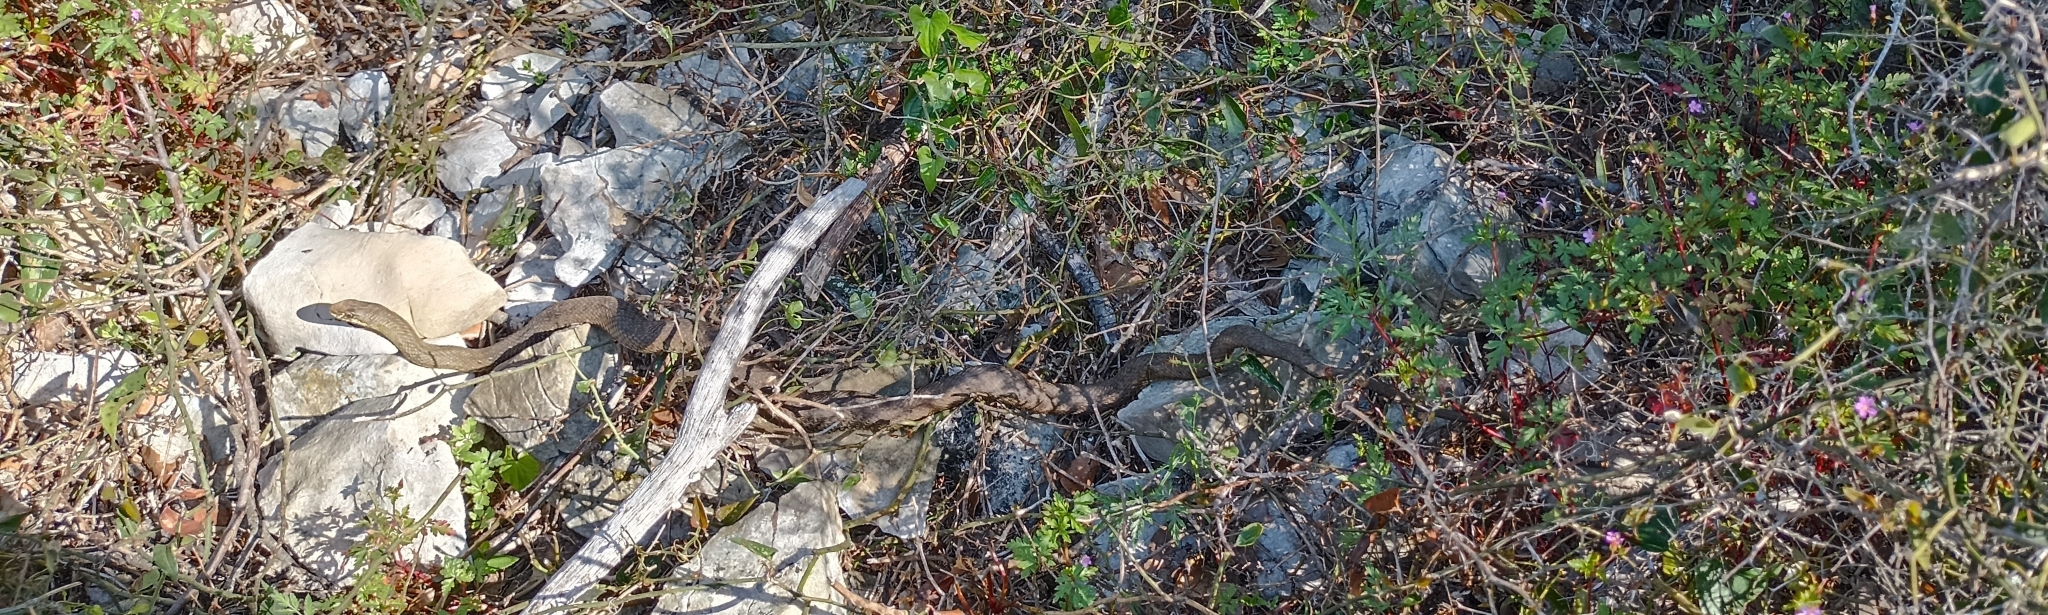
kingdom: Animalia
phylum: Chordata
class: Squamata
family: Psammophiidae
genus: Malpolon
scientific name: Malpolon monspessulanus
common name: Montpellier snake
